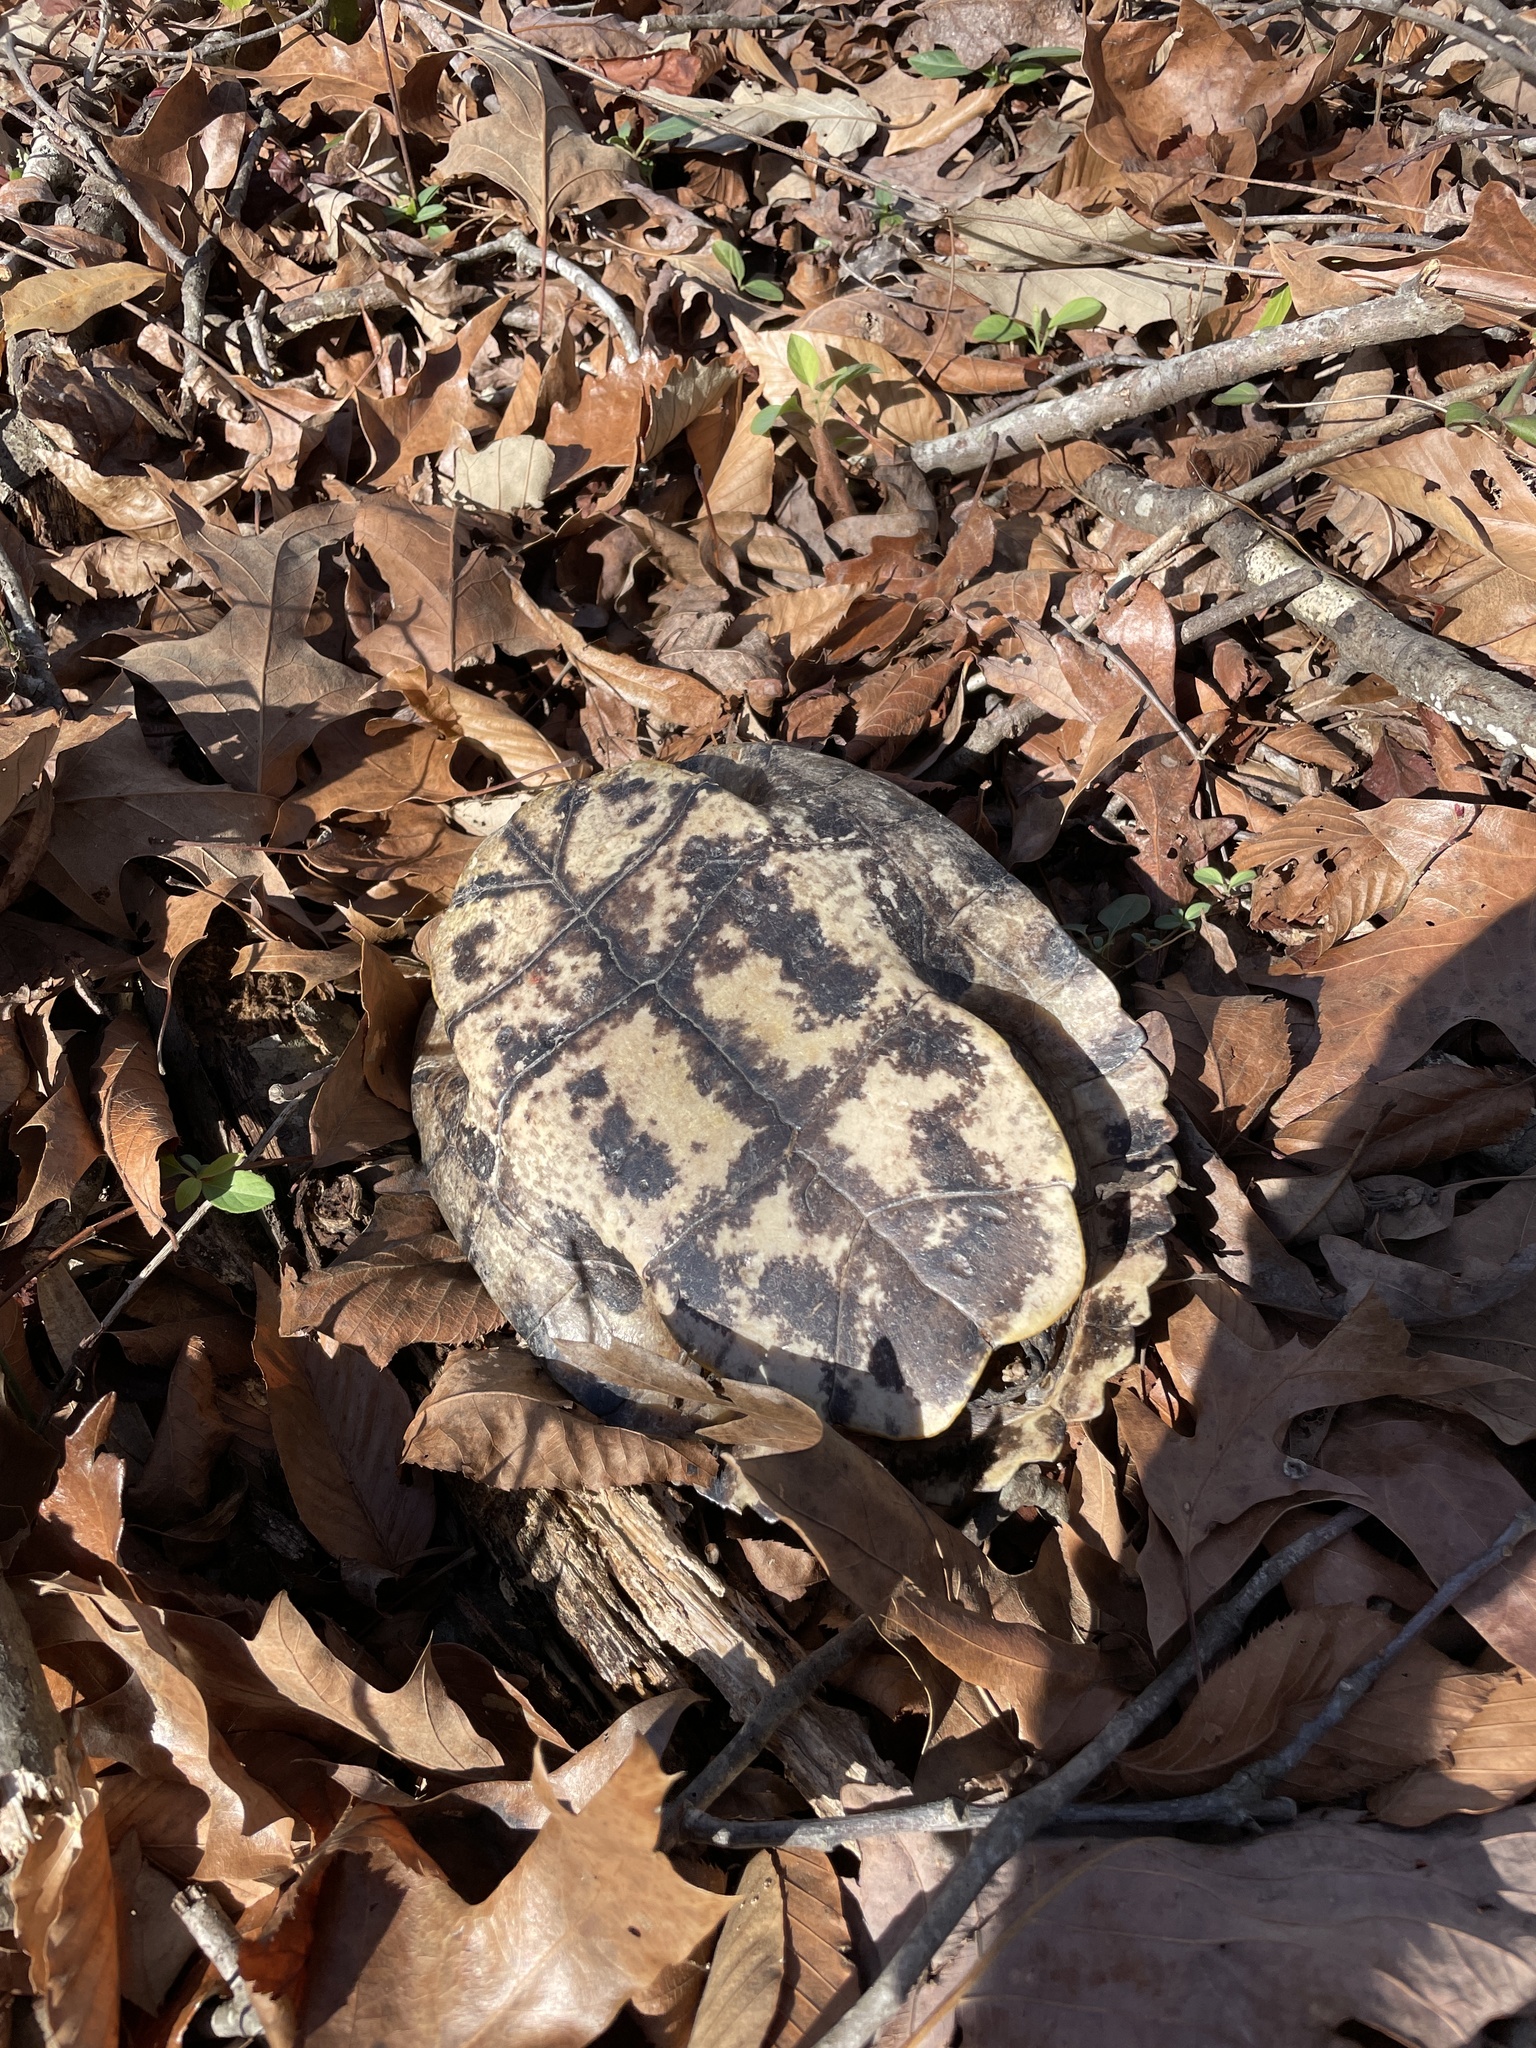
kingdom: Animalia
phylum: Chordata
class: Testudines
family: Emydidae
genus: Trachemys
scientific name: Trachemys scripta
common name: Slider
